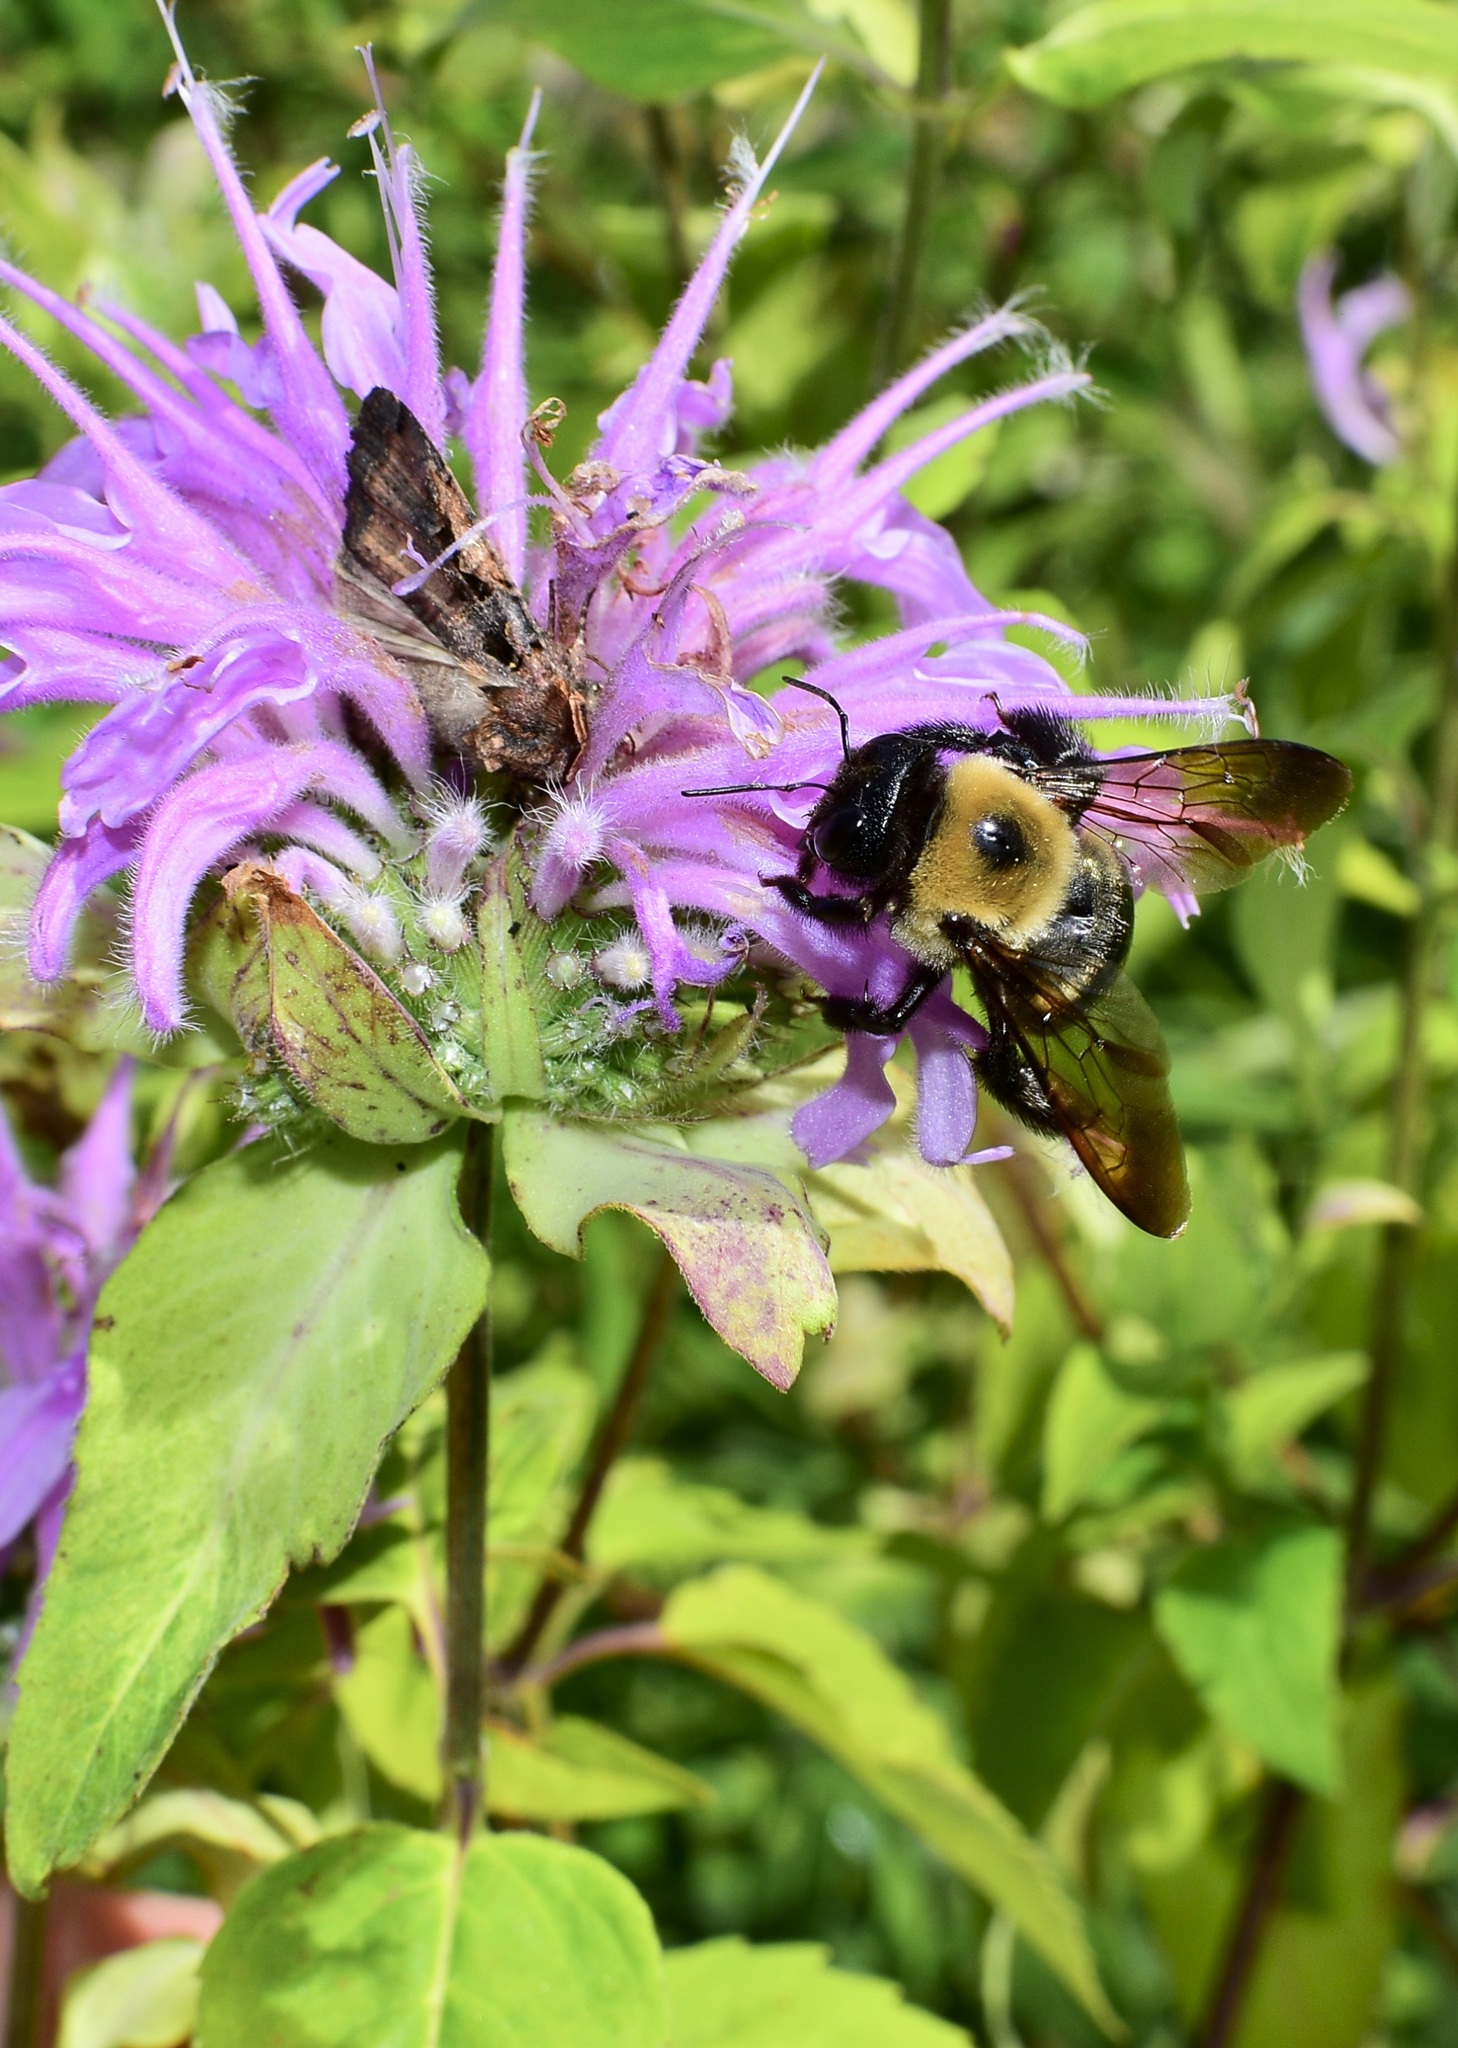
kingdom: Animalia
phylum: Arthropoda
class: Insecta
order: Hymenoptera
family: Apidae
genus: Xylocopa
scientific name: Xylocopa virginica
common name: Carpenter bee
